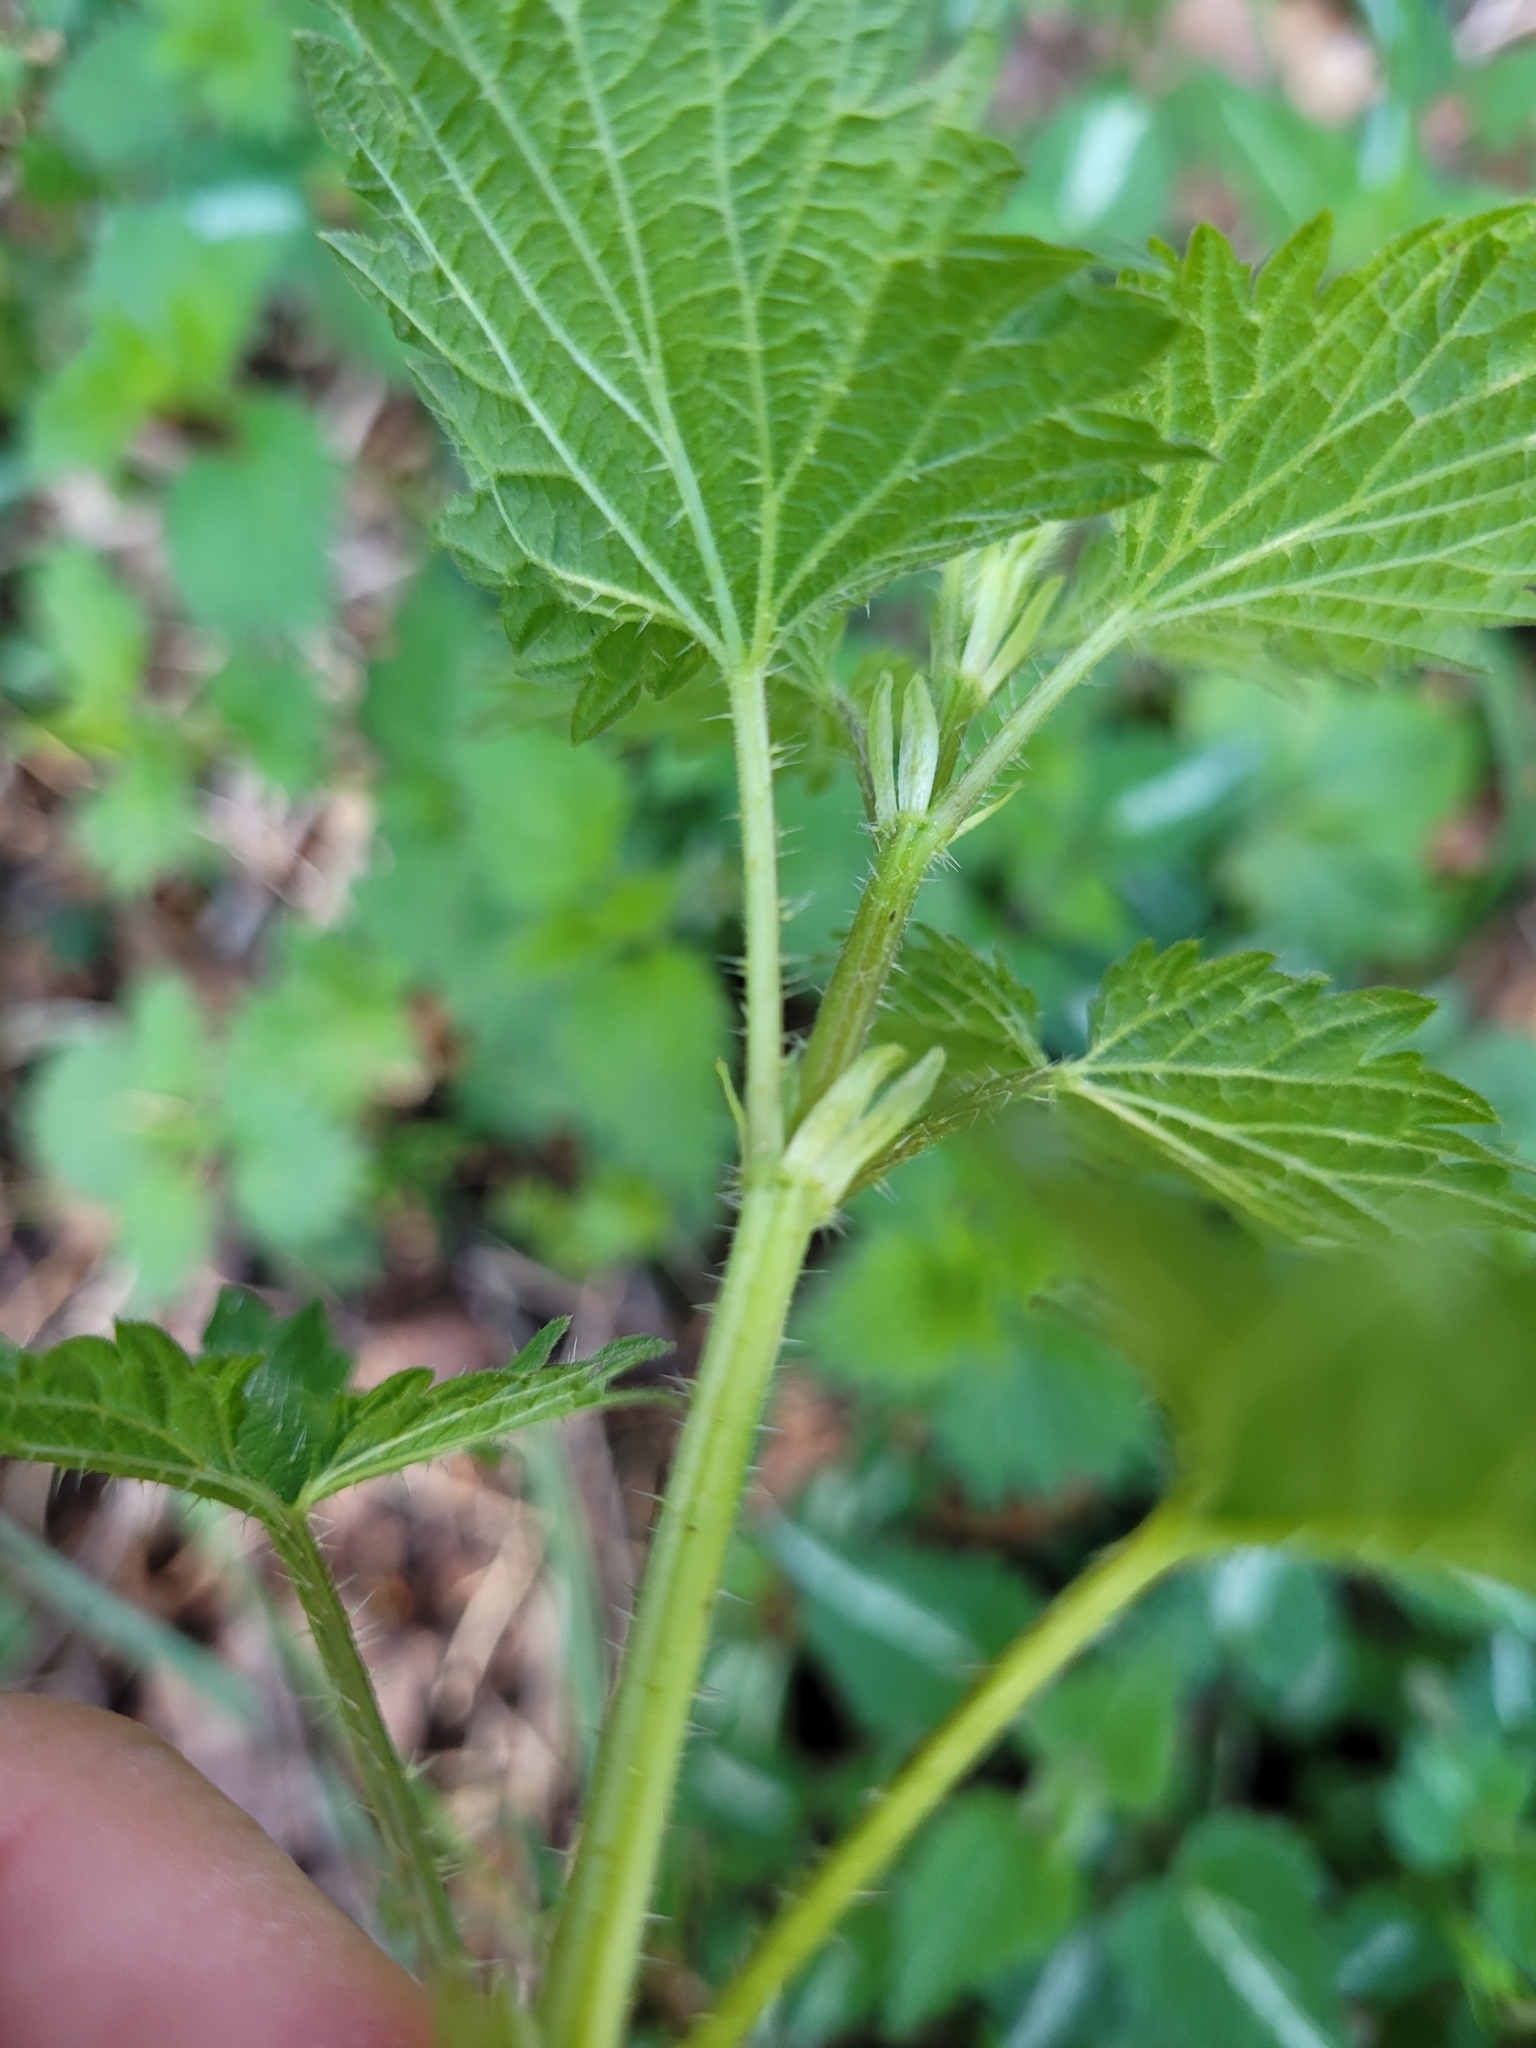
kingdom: Plantae
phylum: Tracheophyta
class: Magnoliopsida
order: Rosales
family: Urticaceae
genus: Urtica
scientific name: Urtica dioica
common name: Common nettle
